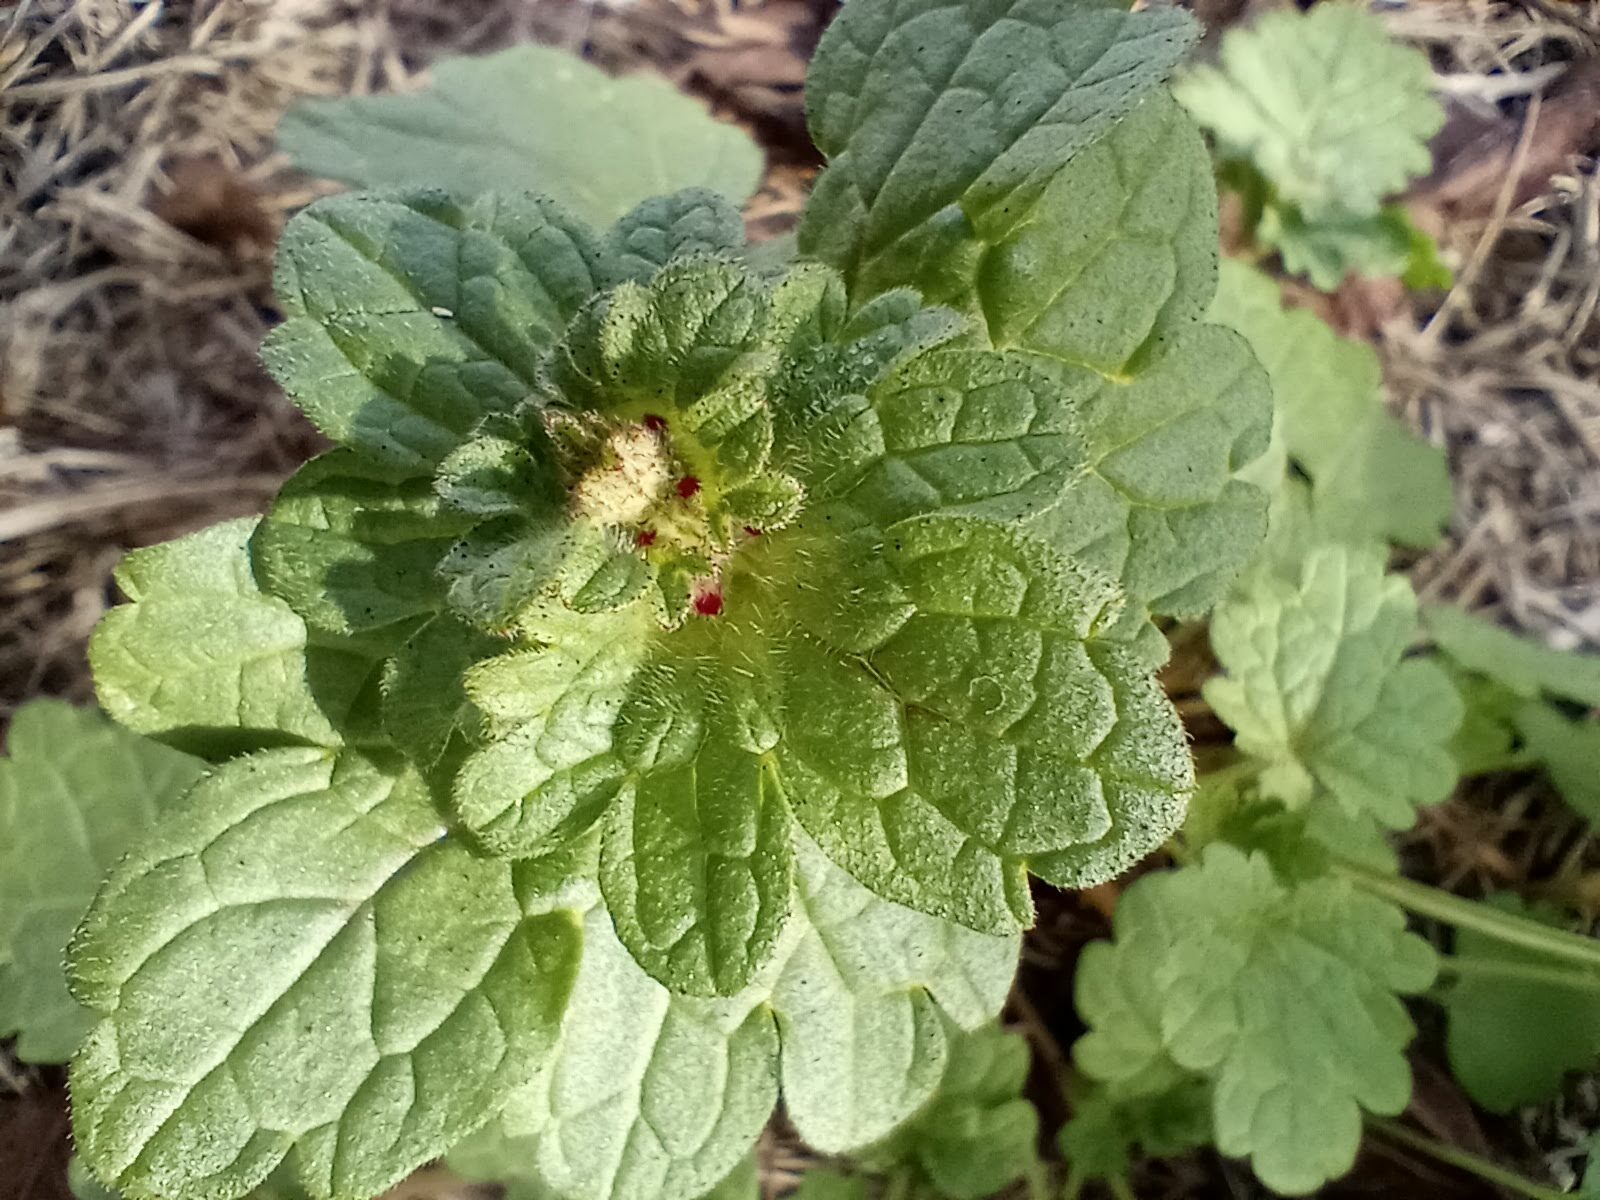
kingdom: Plantae
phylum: Tracheophyta
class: Magnoliopsida
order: Lamiales
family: Lamiaceae
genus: Lamium
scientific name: Lamium amplexicaule
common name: Henbit dead-nettle
